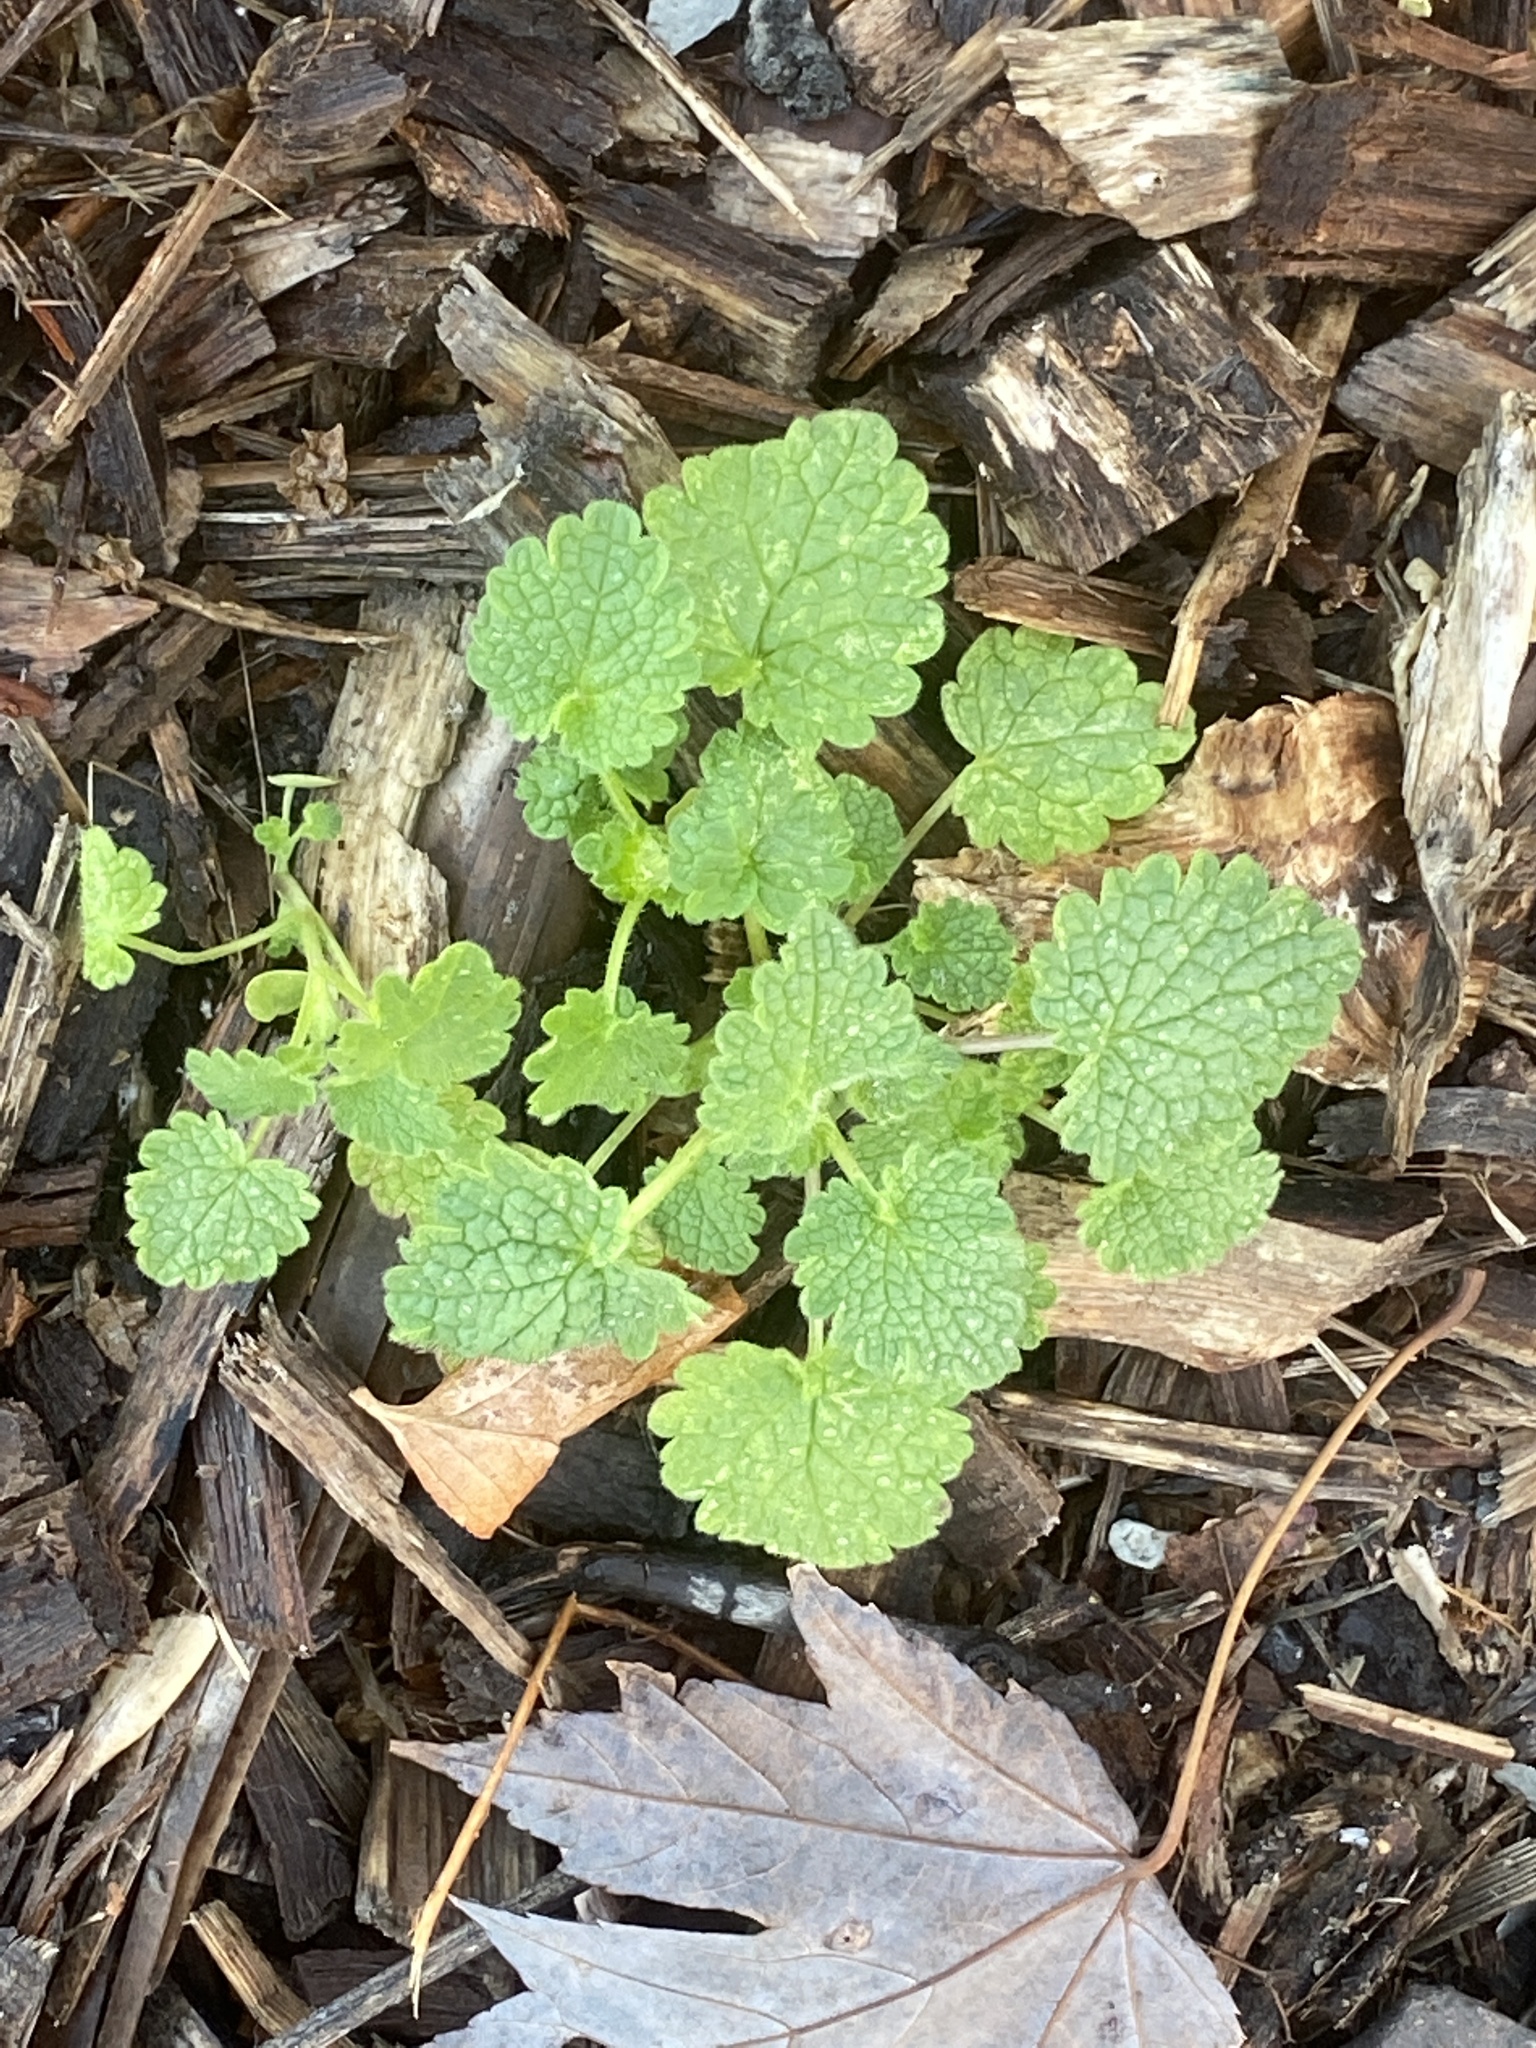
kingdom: Plantae
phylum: Tracheophyta
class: Magnoliopsida
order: Lamiales
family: Lamiaceae
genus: Lamium
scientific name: Lamium purpureum
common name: Red dead-nettle
